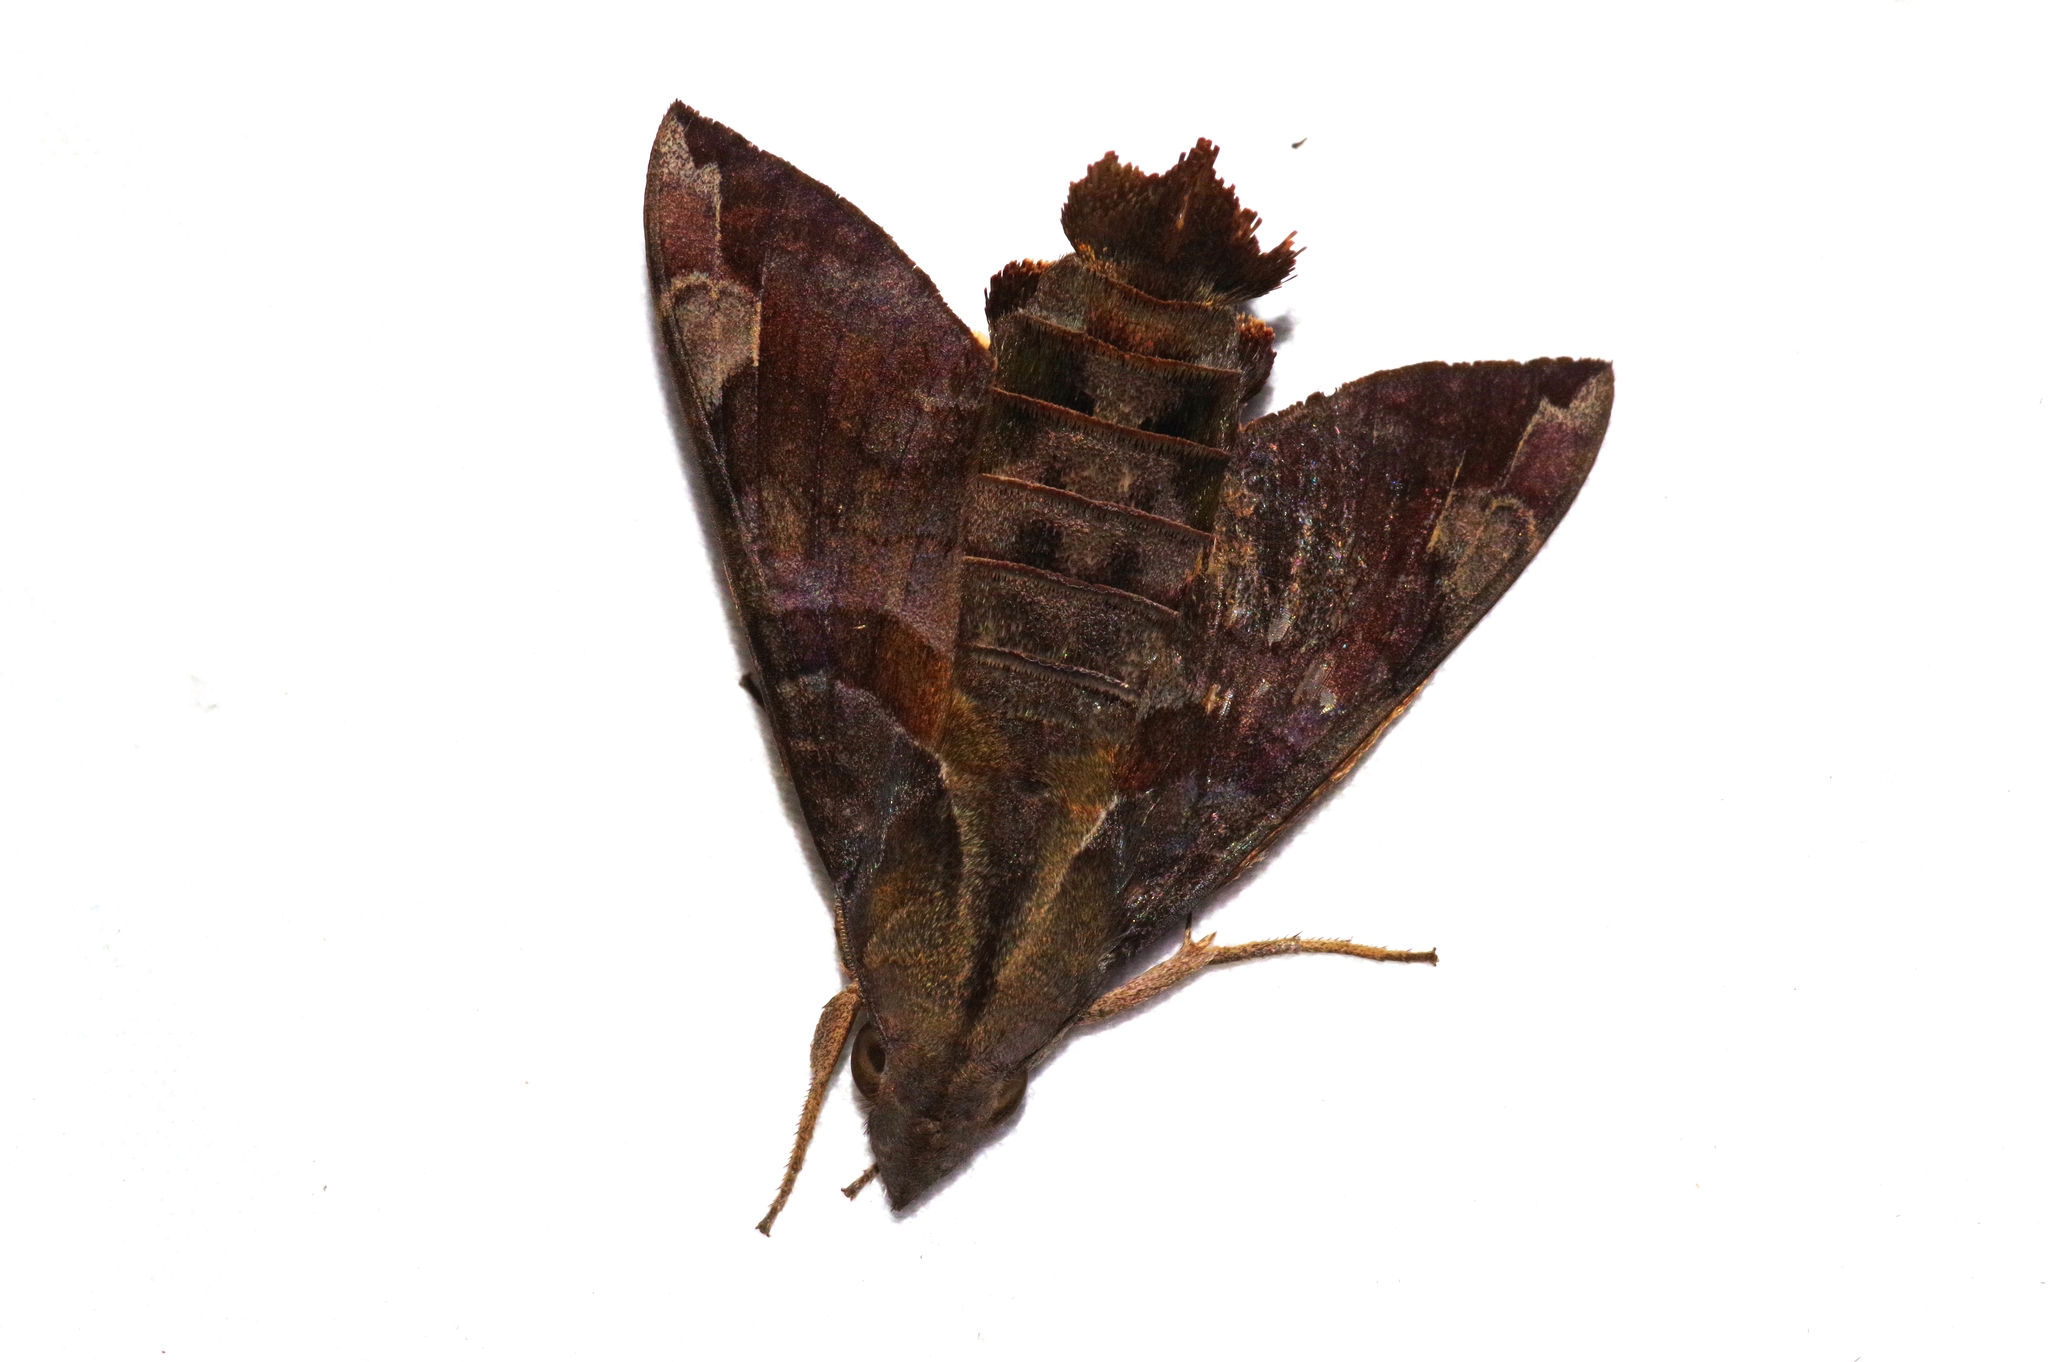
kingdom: Animalia
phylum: Arthropoda
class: Insecta
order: Lepidoptera
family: Sphingidae
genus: Macroglossum
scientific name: Macroglossum saga
